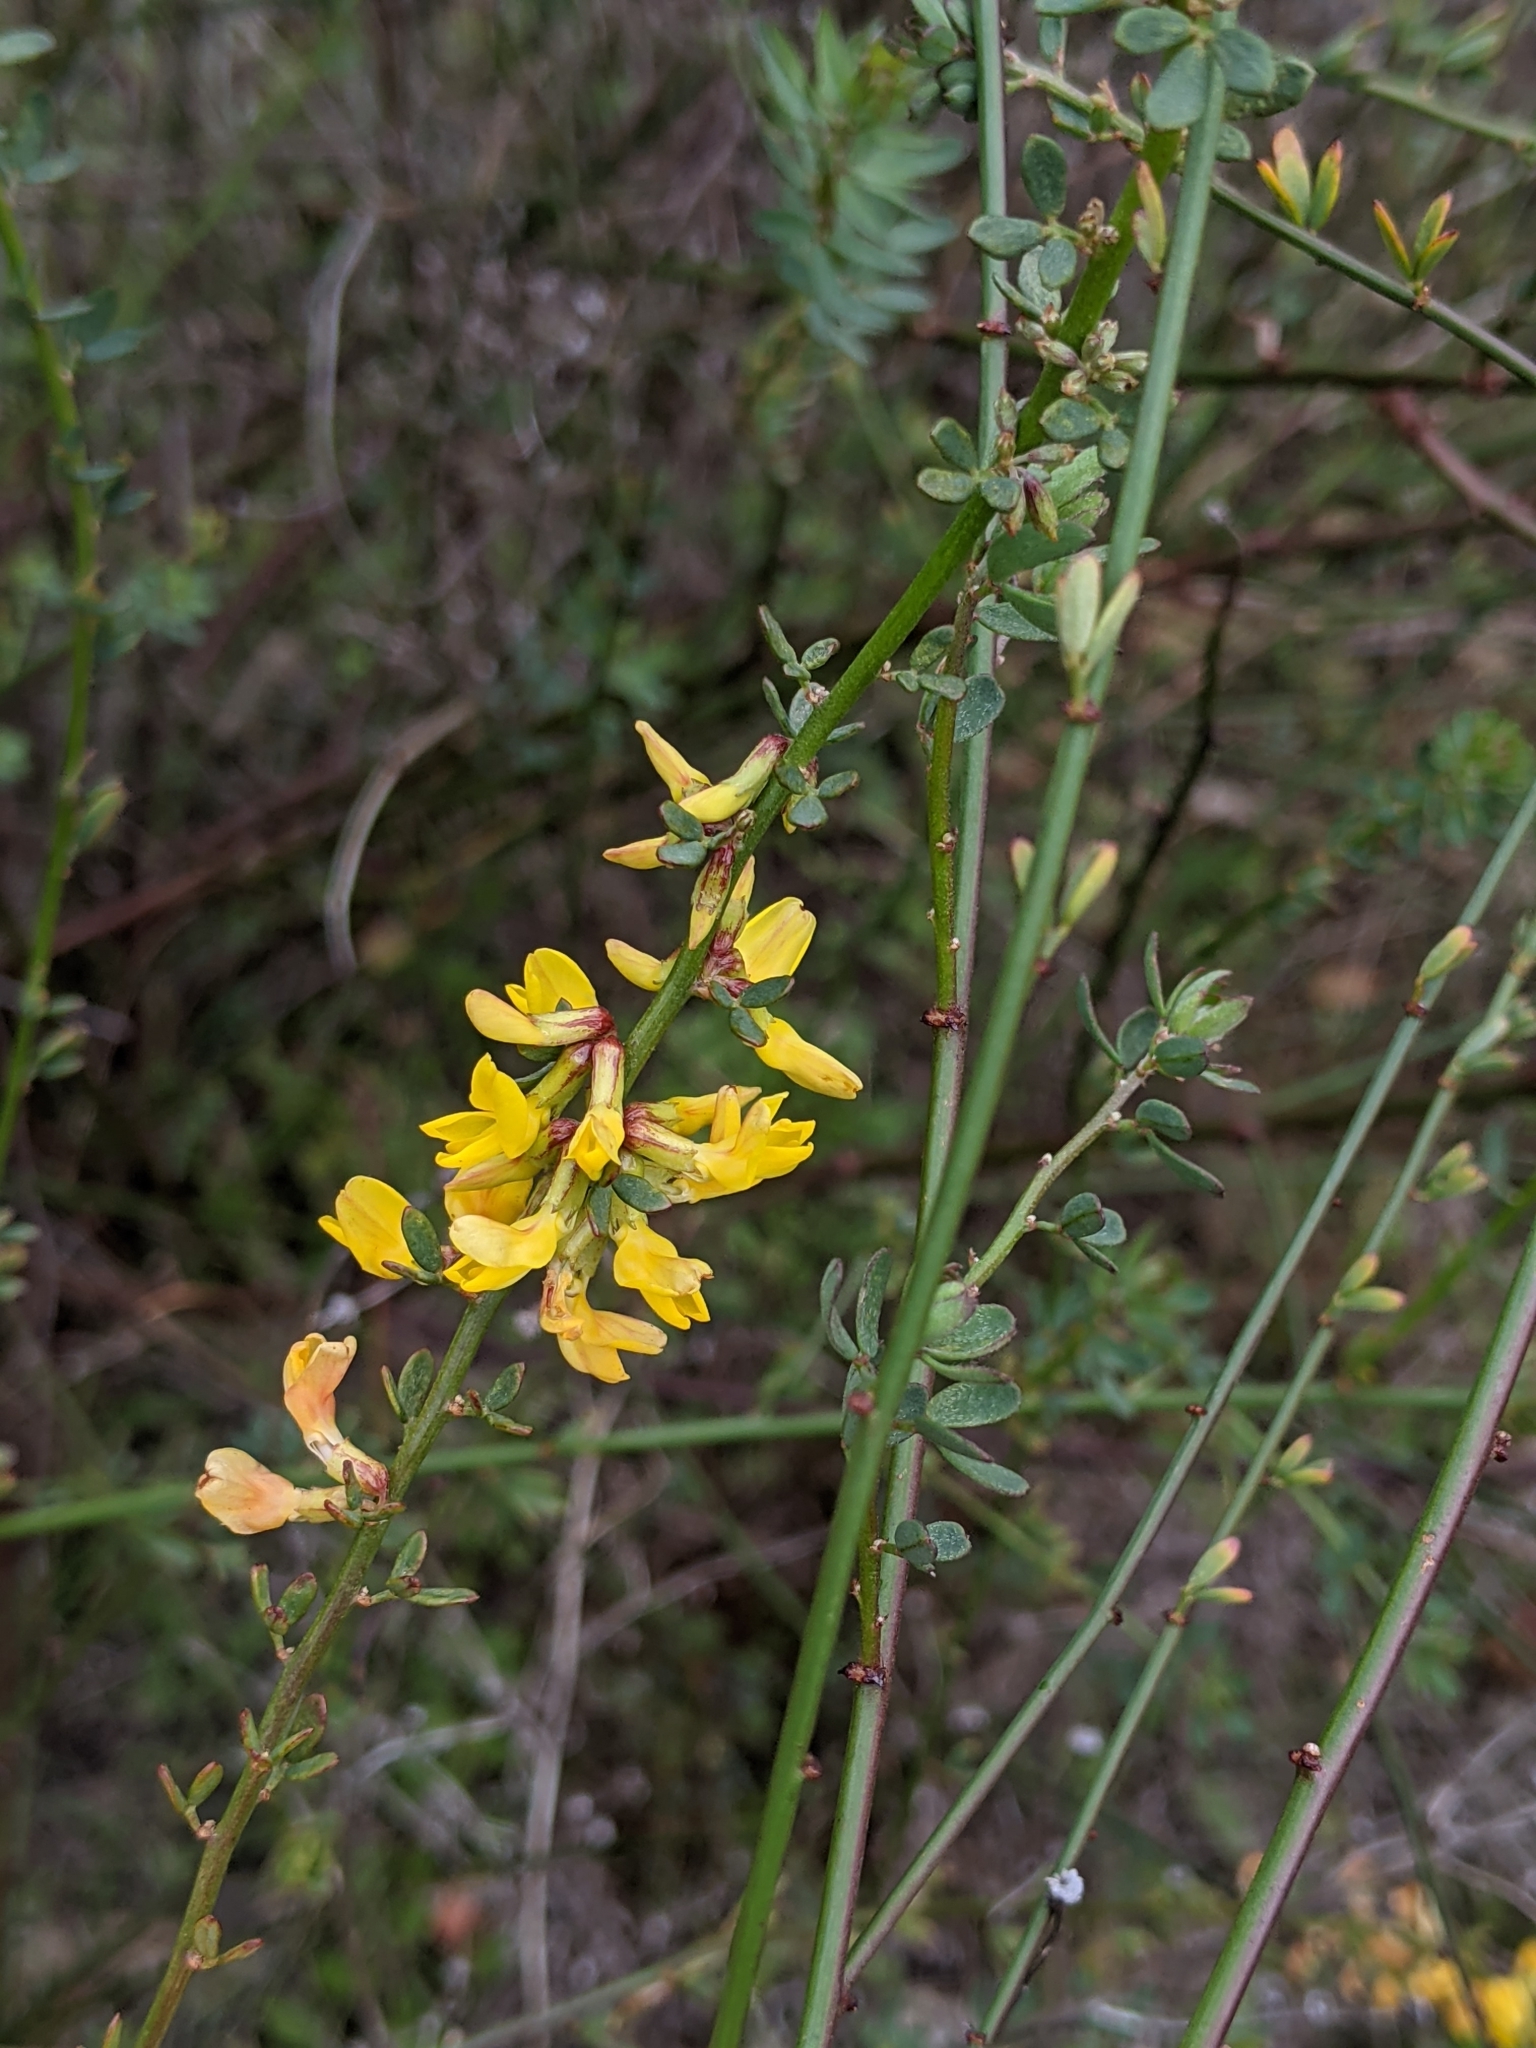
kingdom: Plantae
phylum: Tracheophyta
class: Magnoliopsida
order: Fabales
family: Fabaceae
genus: Acmispon
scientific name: Acmispon glaber
